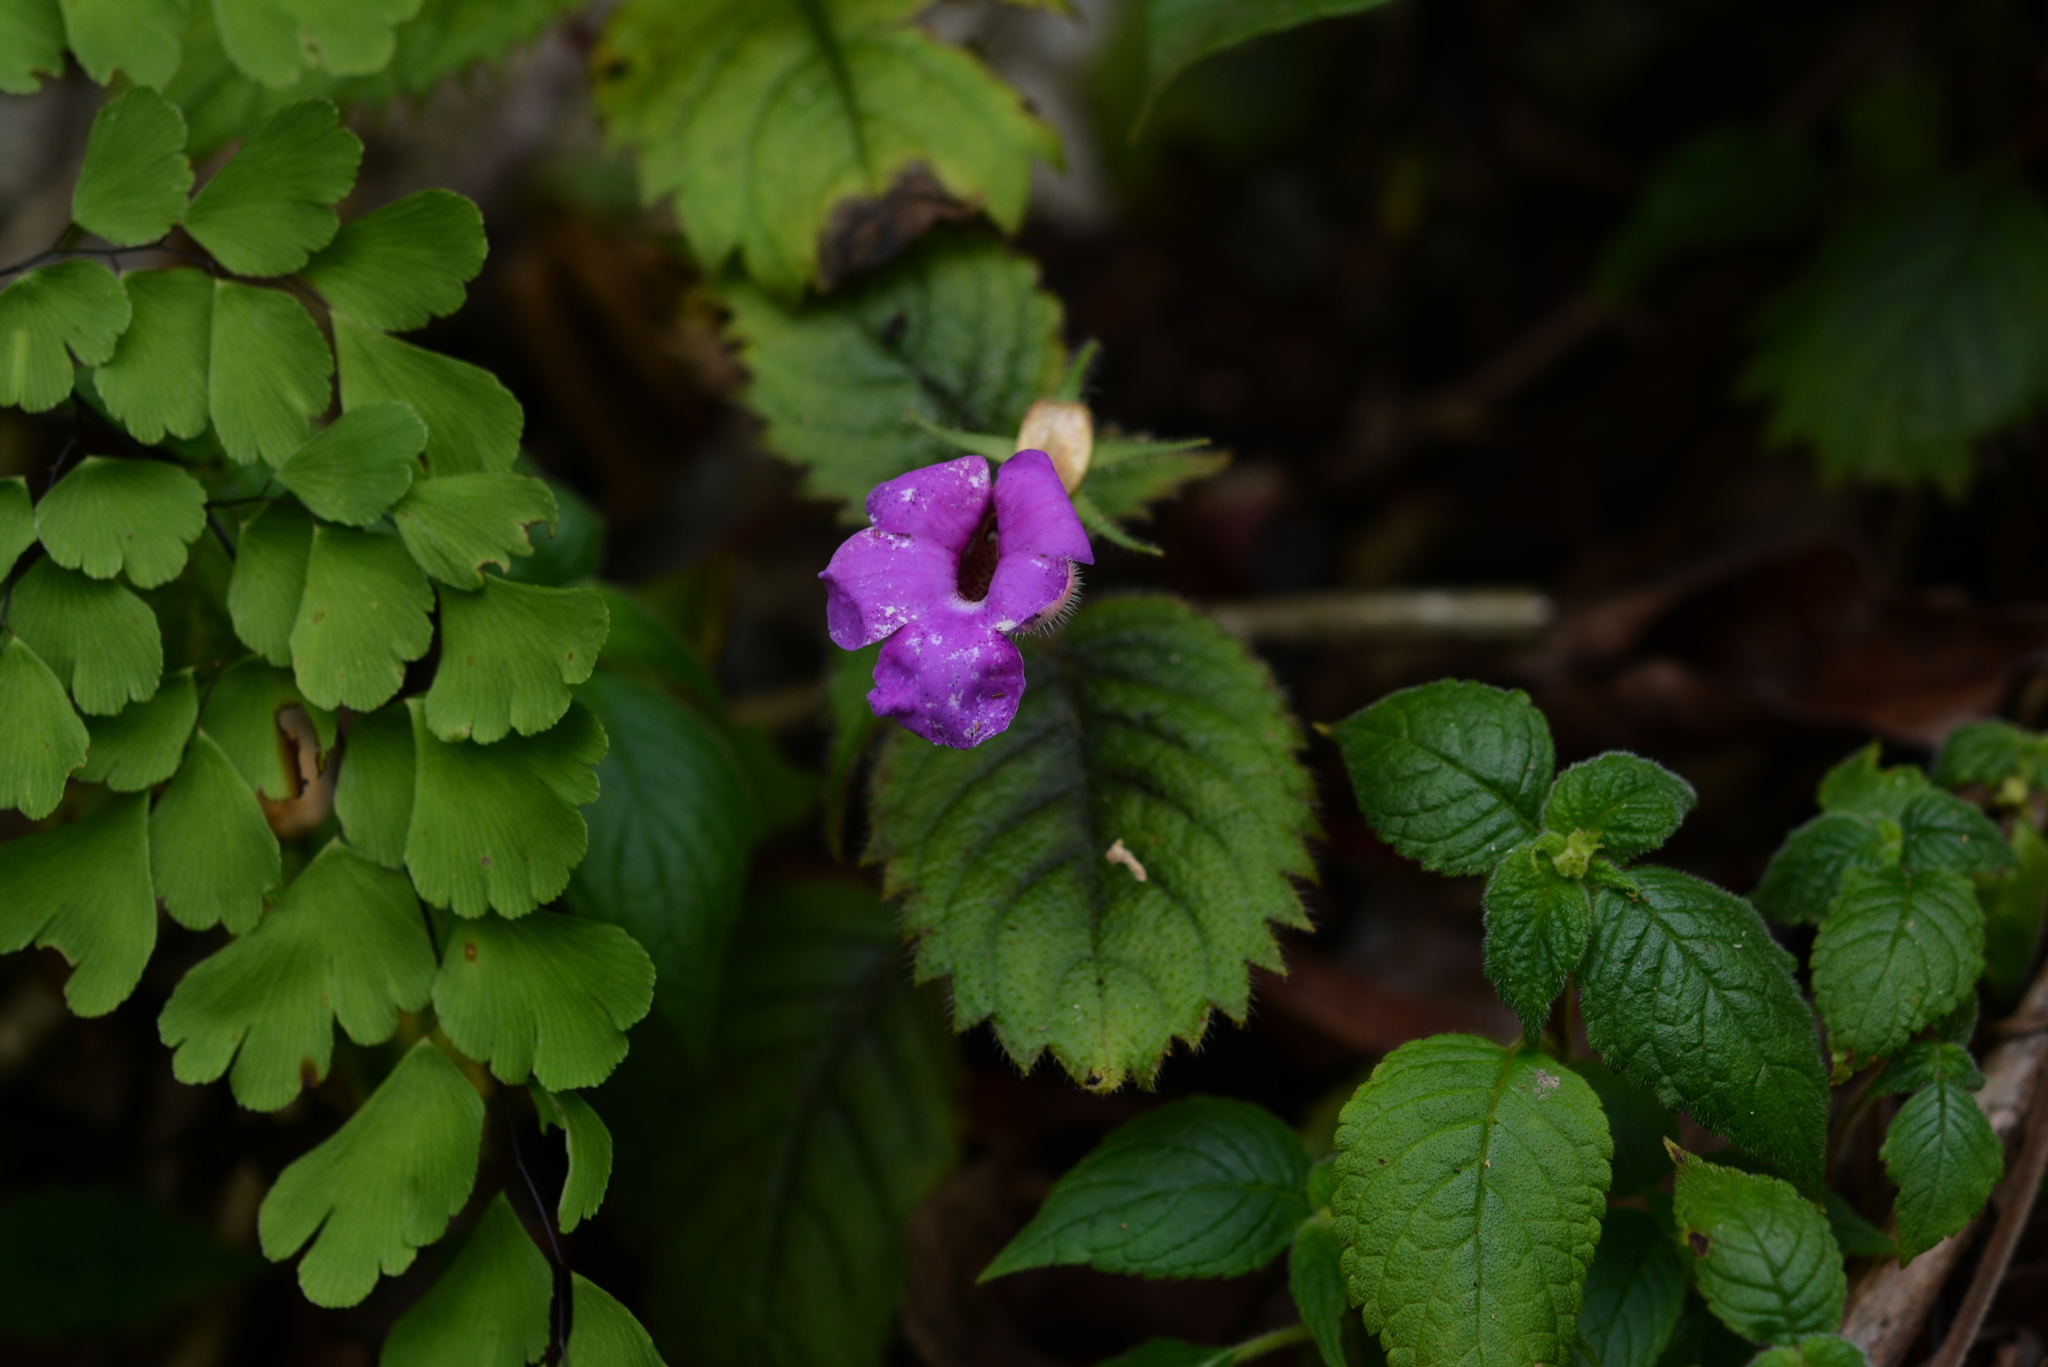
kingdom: Plantae
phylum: Tracheophyta
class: Magnoliopsida
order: Lamiales
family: Gesneriaceae
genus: Achimenes
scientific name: Achimenes grandiflora
